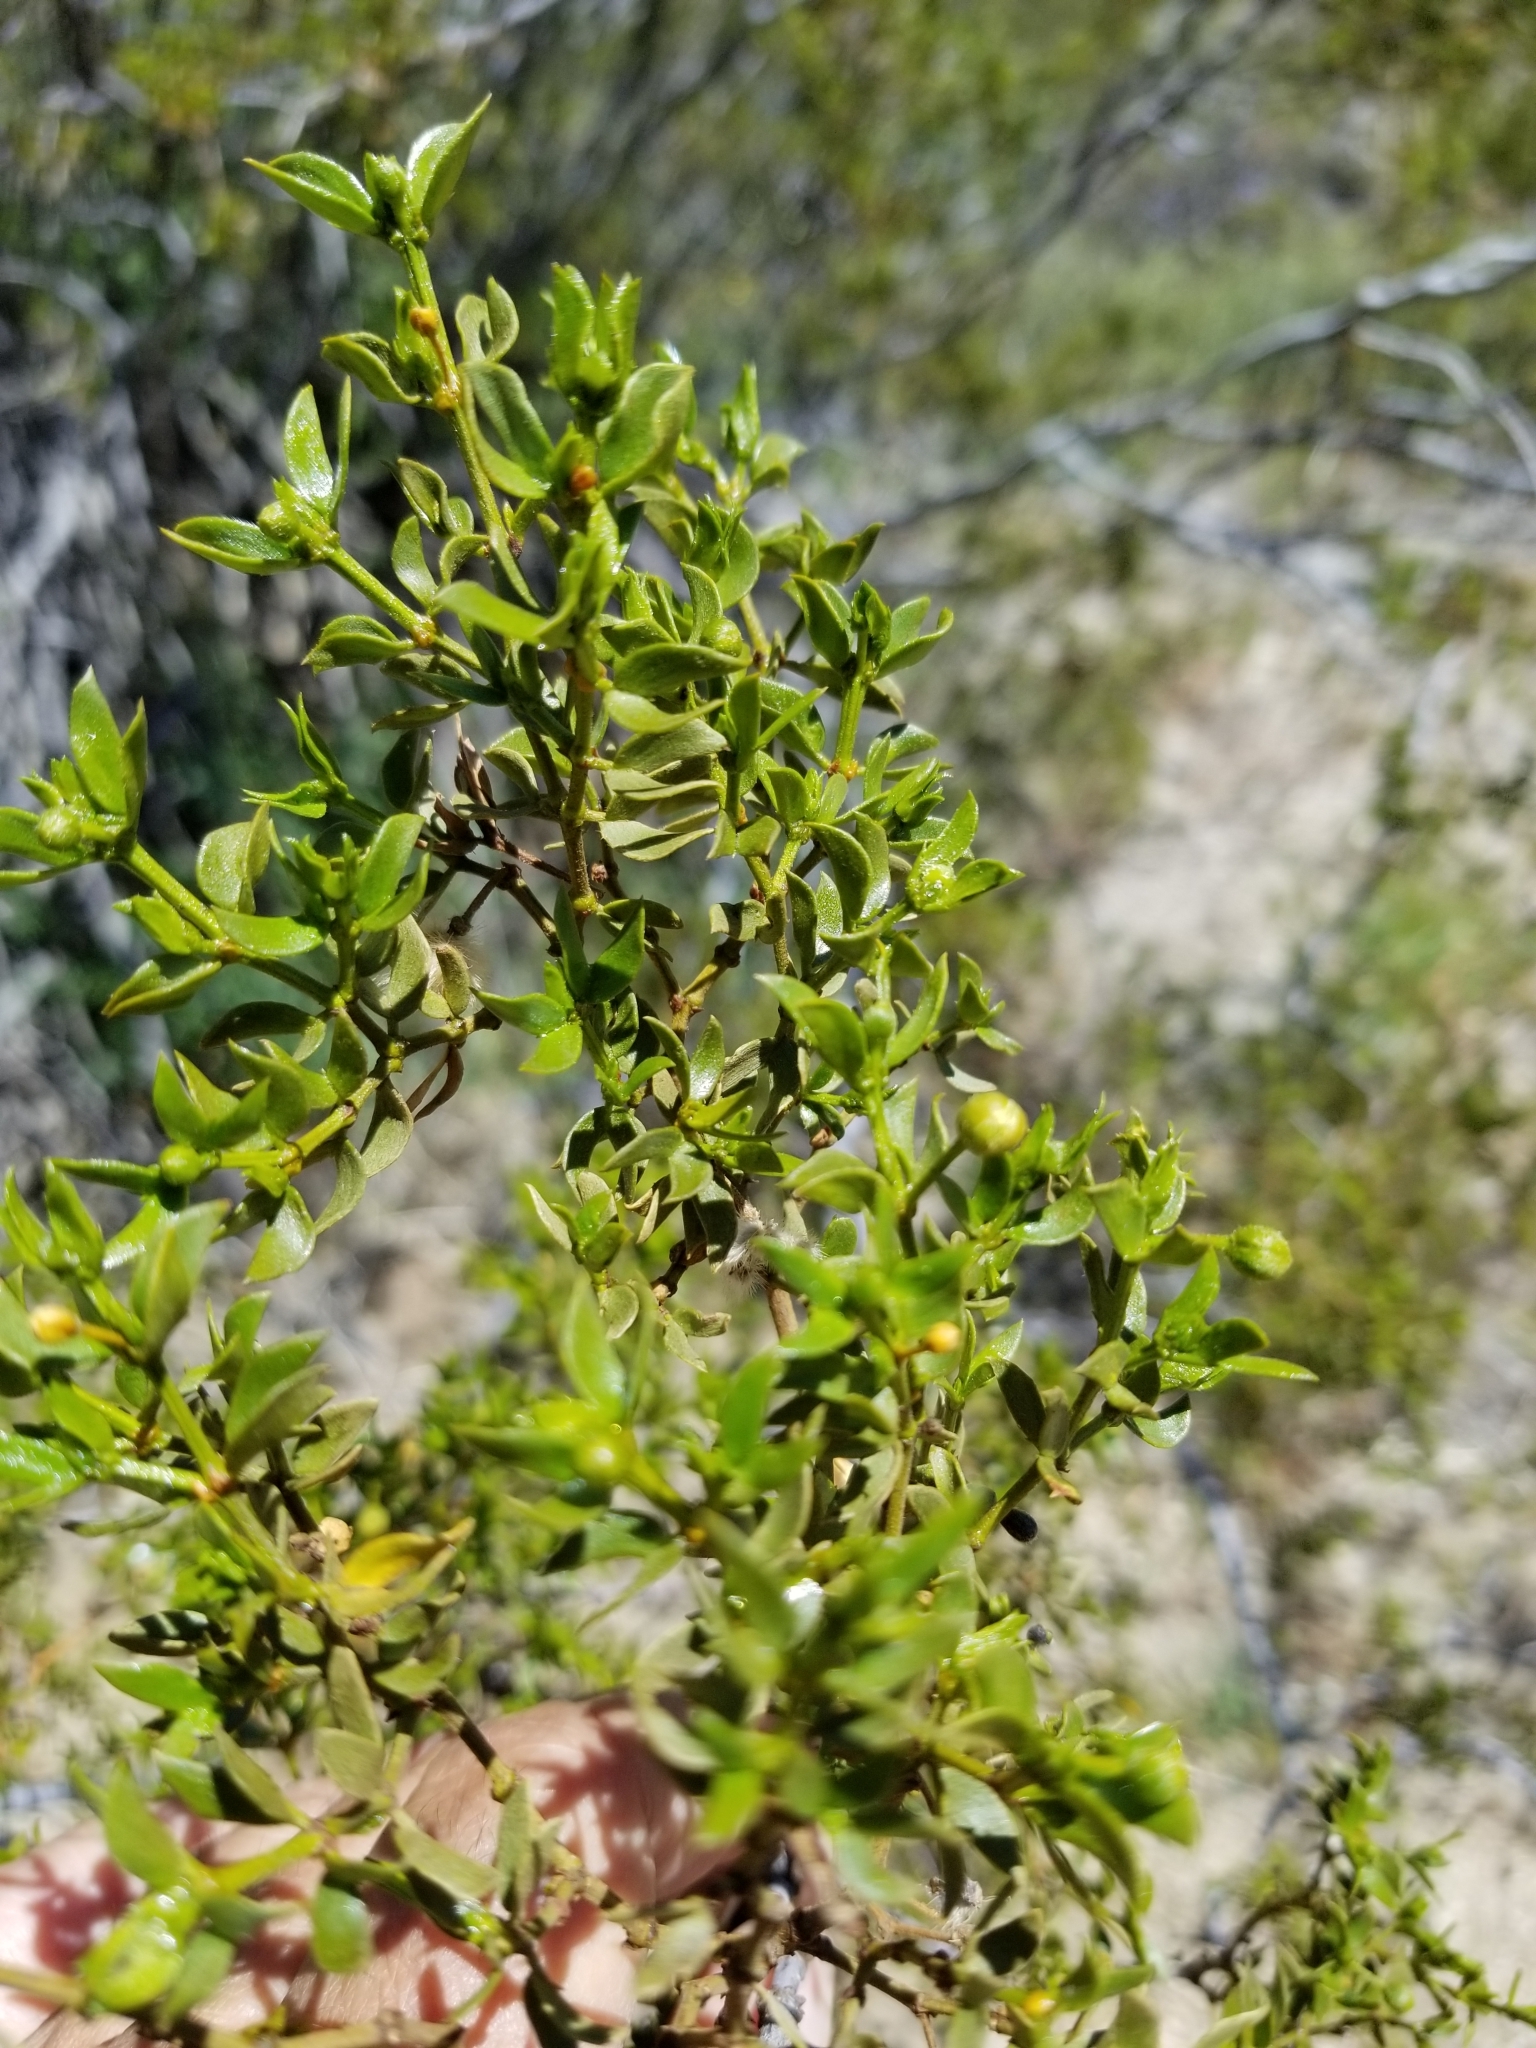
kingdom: Plantae
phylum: Tracheophyta
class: Magnoliopsida
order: Zygophyllales
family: Zygophyllaceae
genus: Larrea
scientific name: Larrea tridentata
